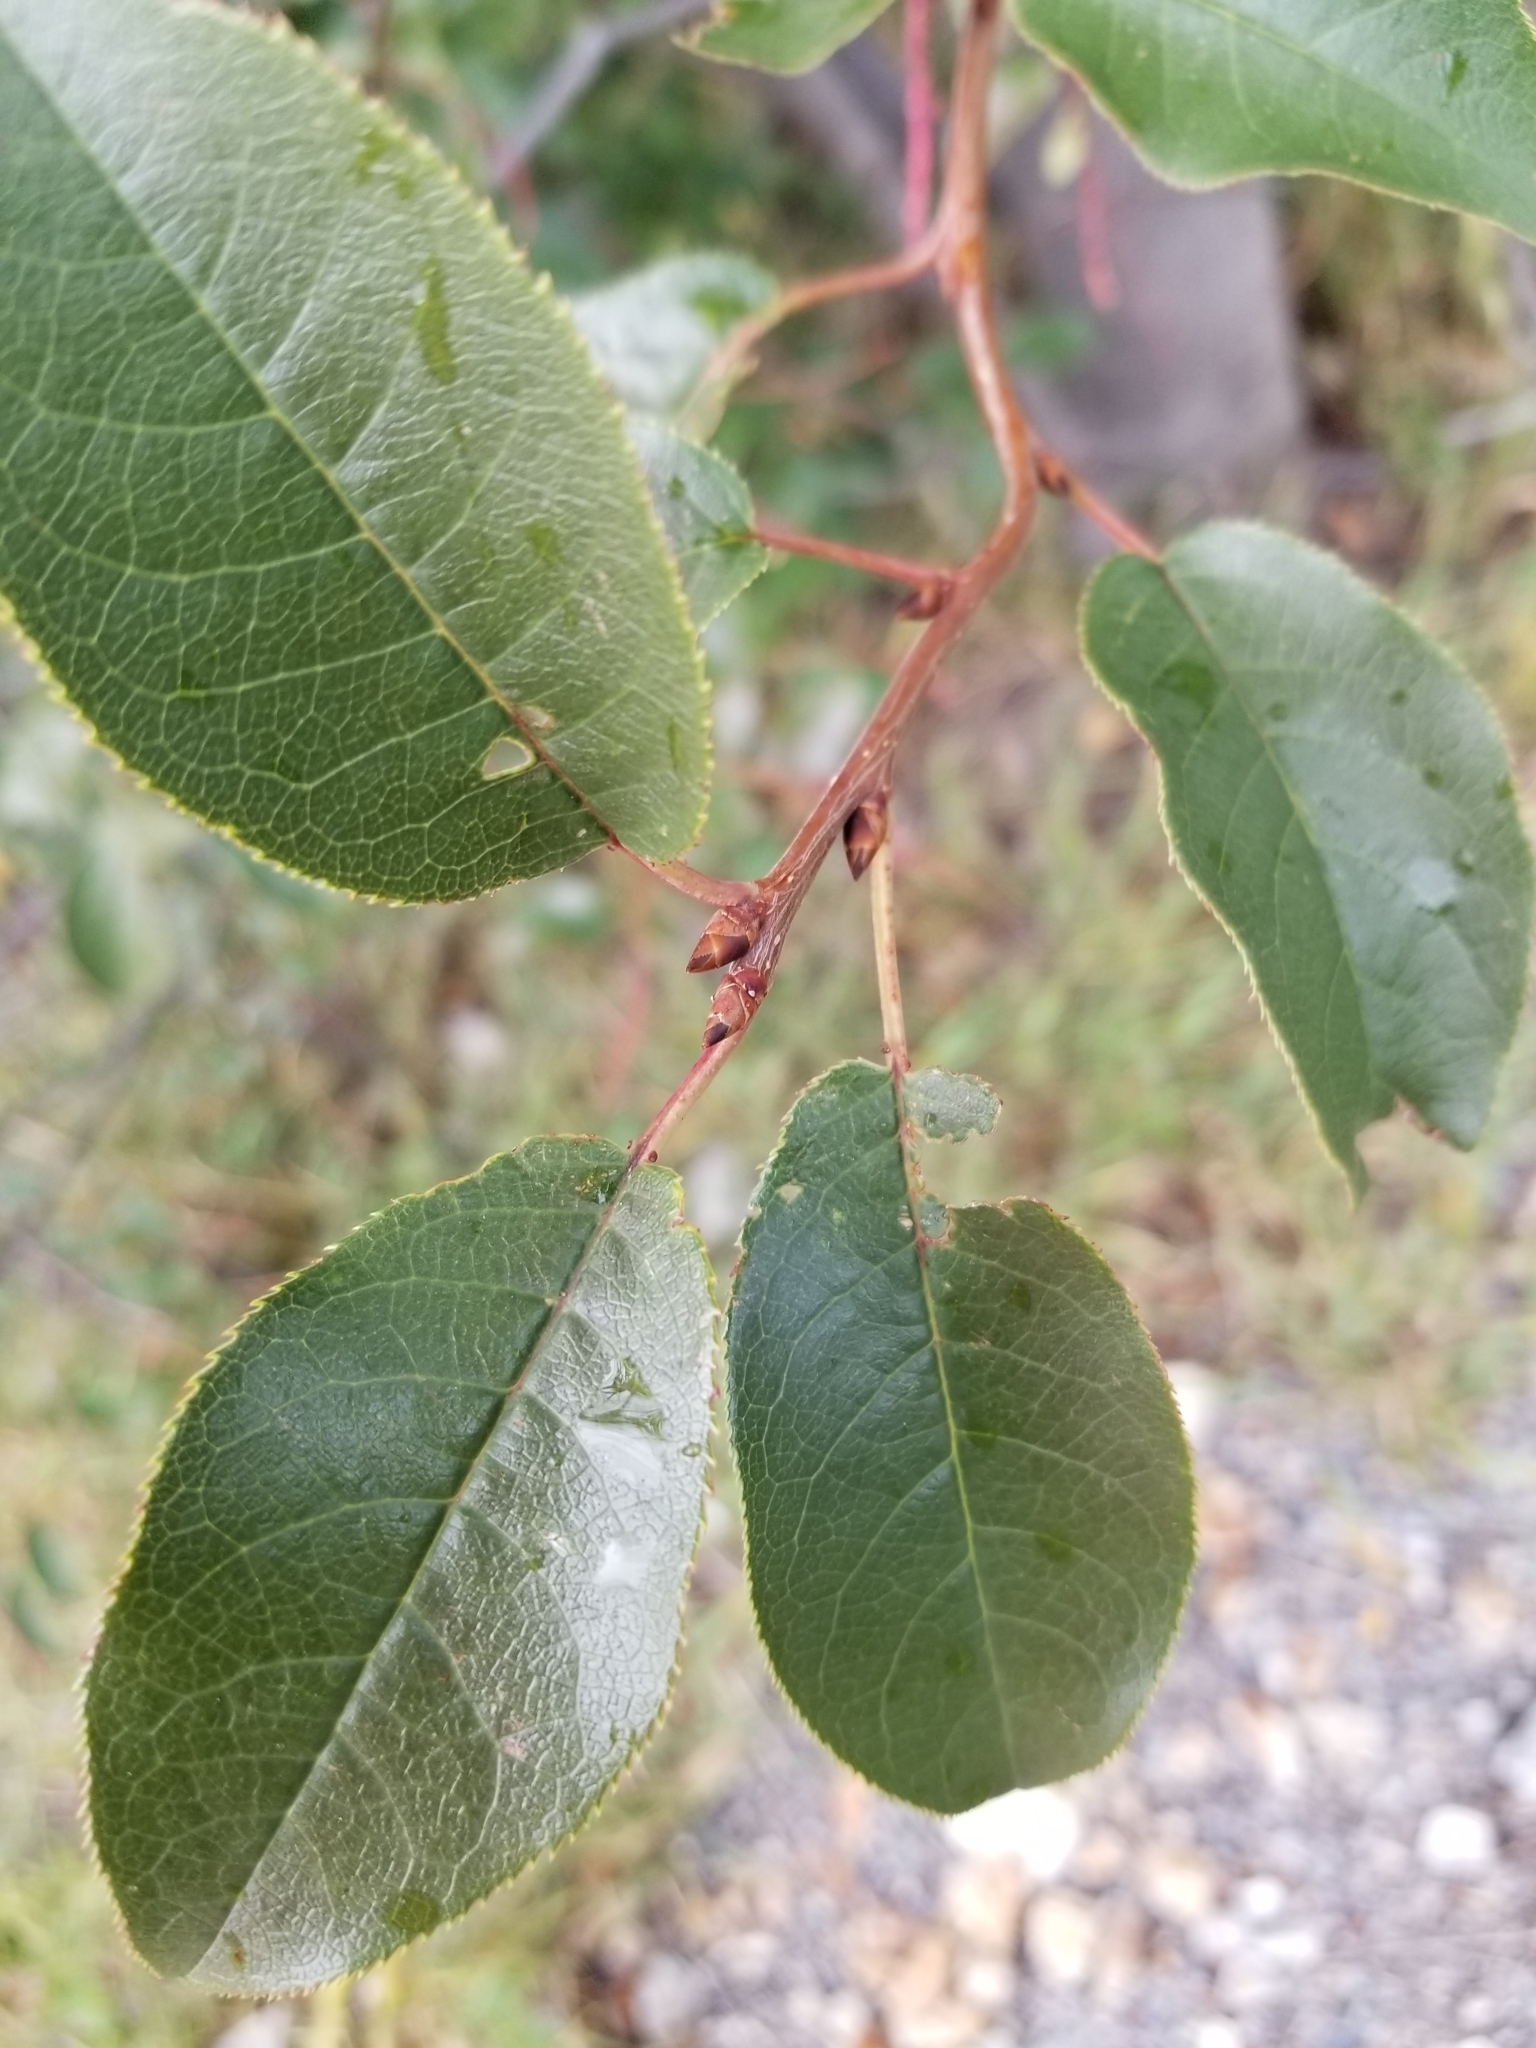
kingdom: Plantae
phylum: Tracheophyta
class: Magnoliopsida
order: Rosales
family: Rosaceae
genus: Prunus
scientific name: Prunus virginiana
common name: Chokecherry
